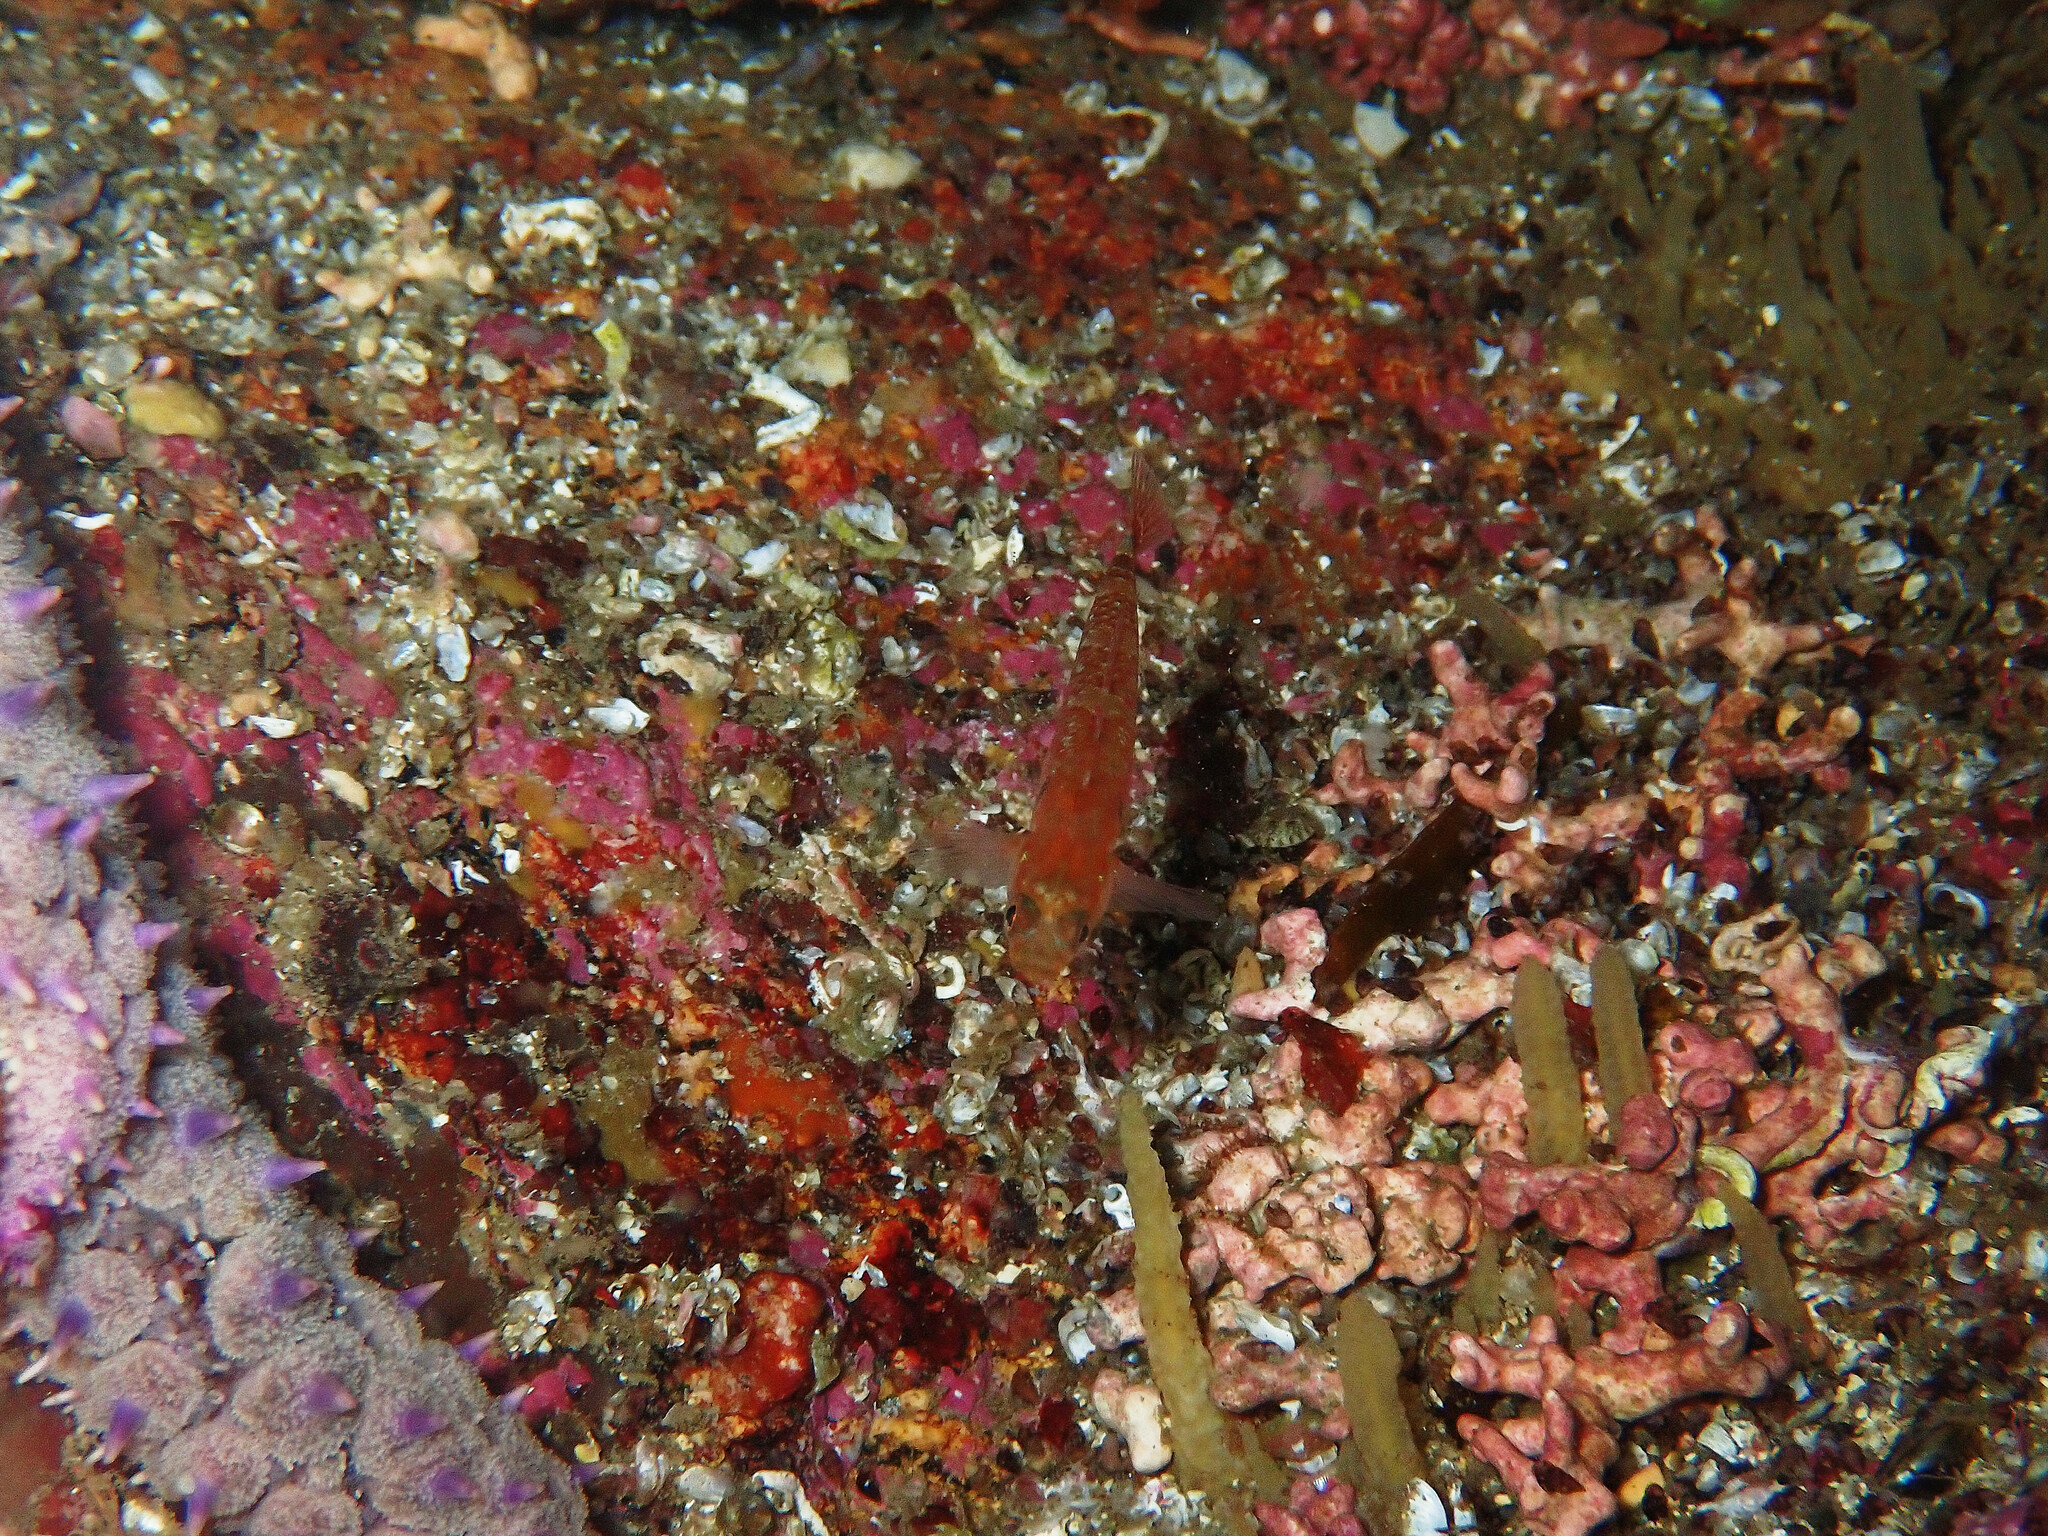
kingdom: Animalia
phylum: Chordata
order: Perciformes
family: Gobiidae
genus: Gobiusculus
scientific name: Gobiusculus flavescens
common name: Two-spotted goby
